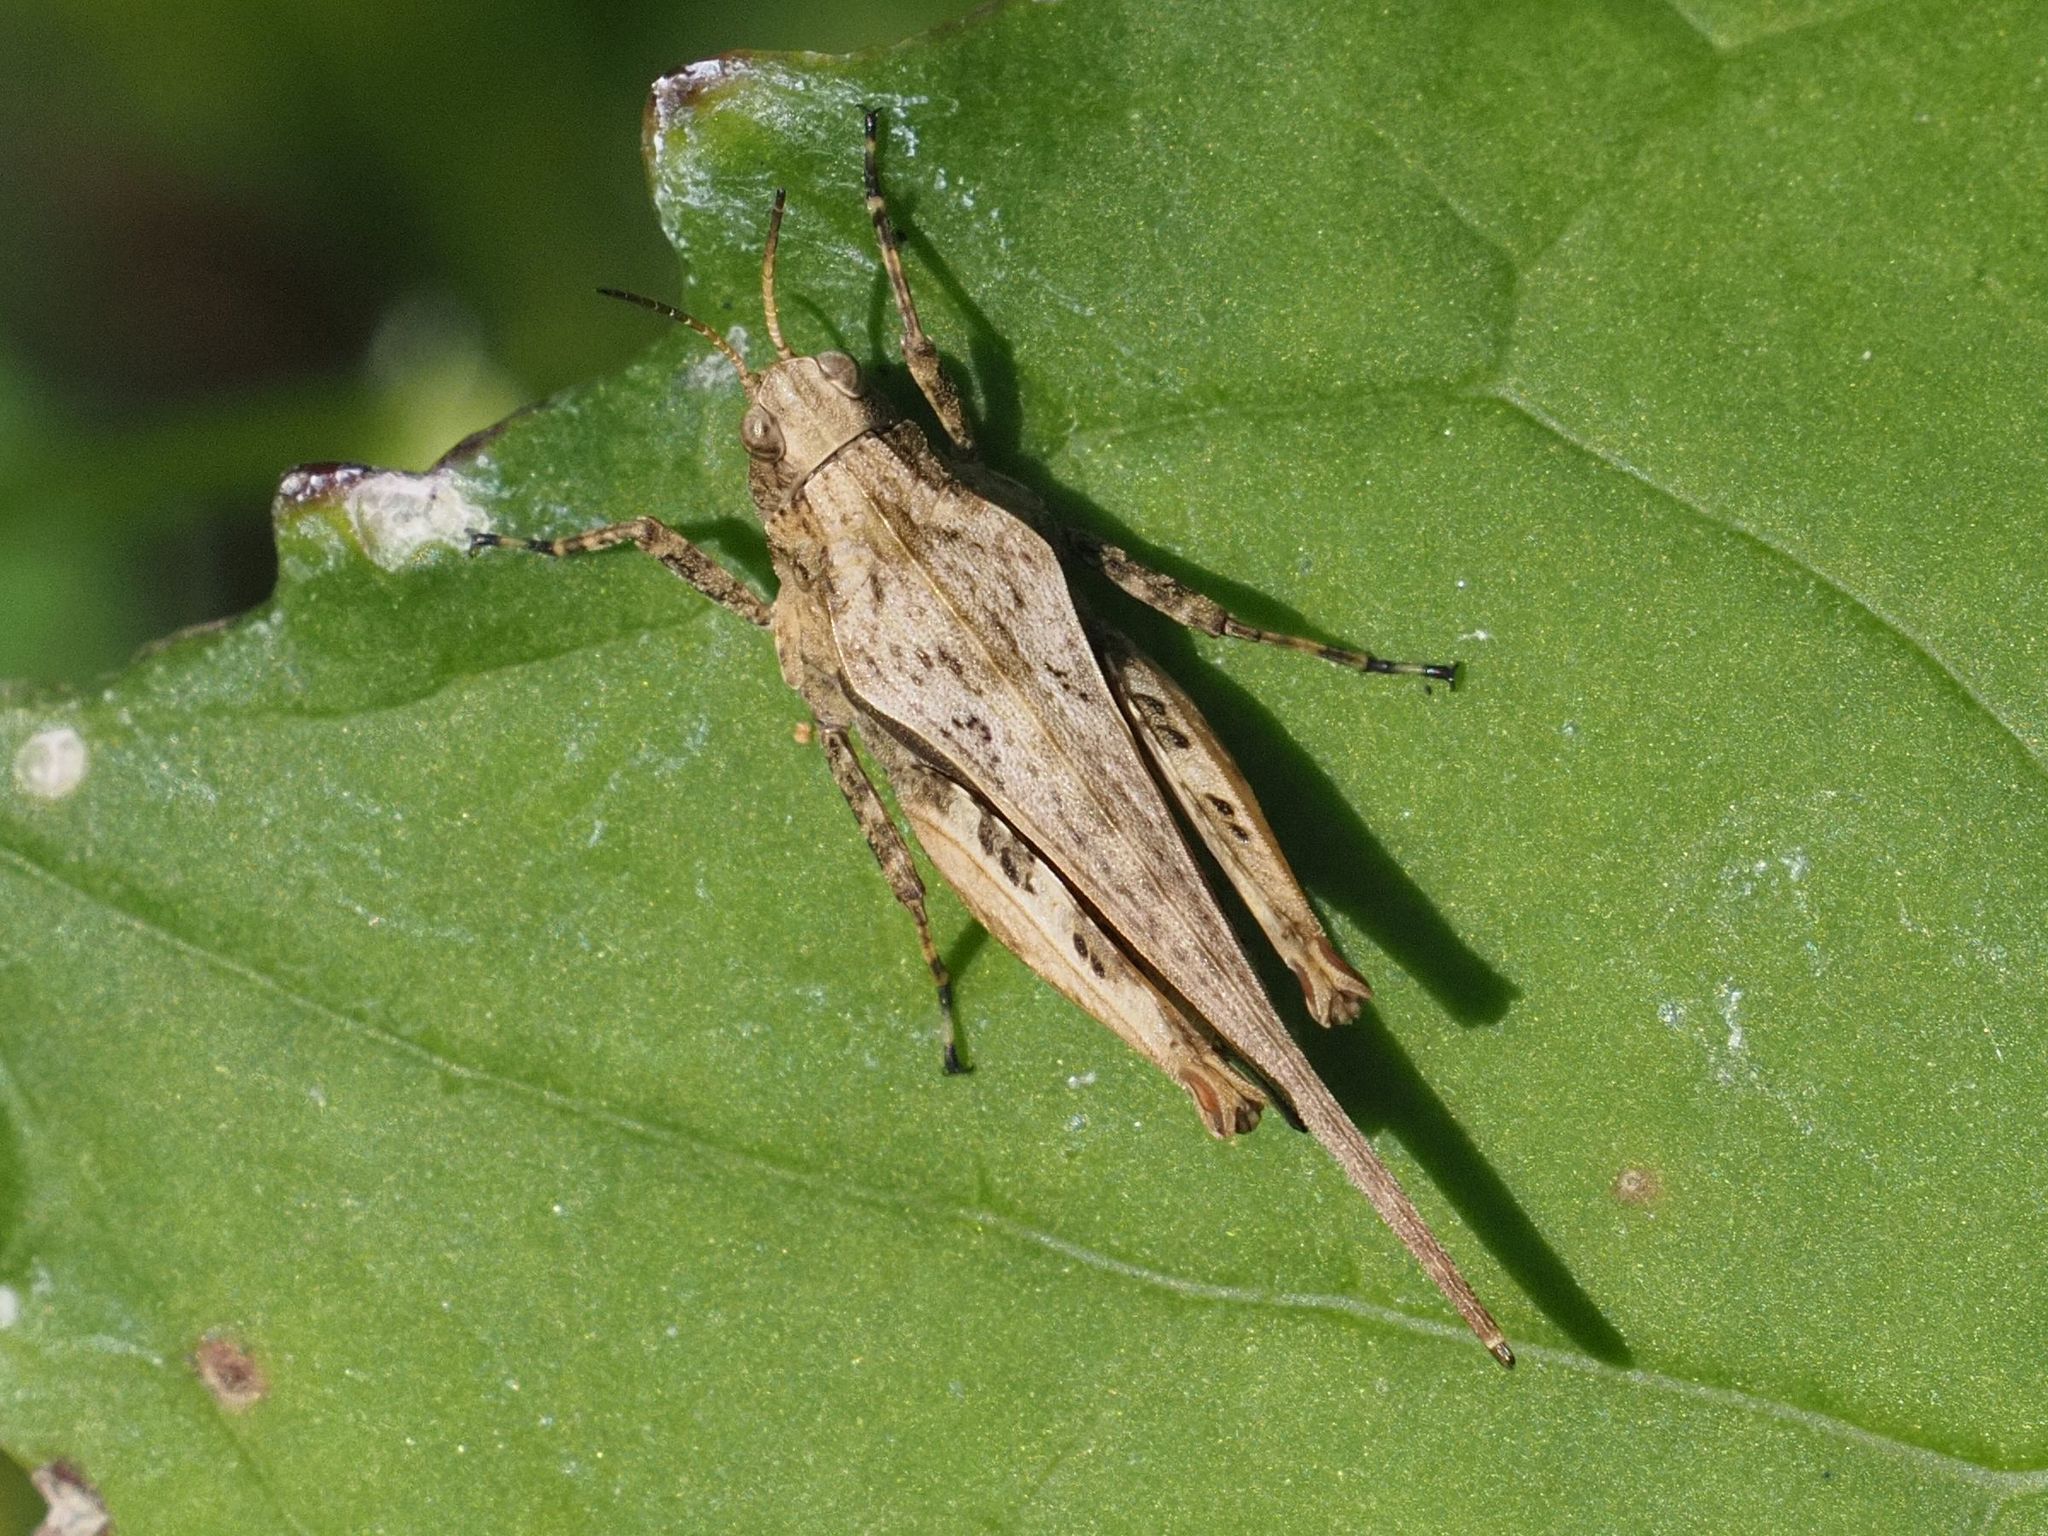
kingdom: Animalia
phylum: Arthropoda
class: Insecta
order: Orthoptera
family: Tetrigidae
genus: Tetrix
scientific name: Tetrix subulata
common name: Slender ground-hopper
